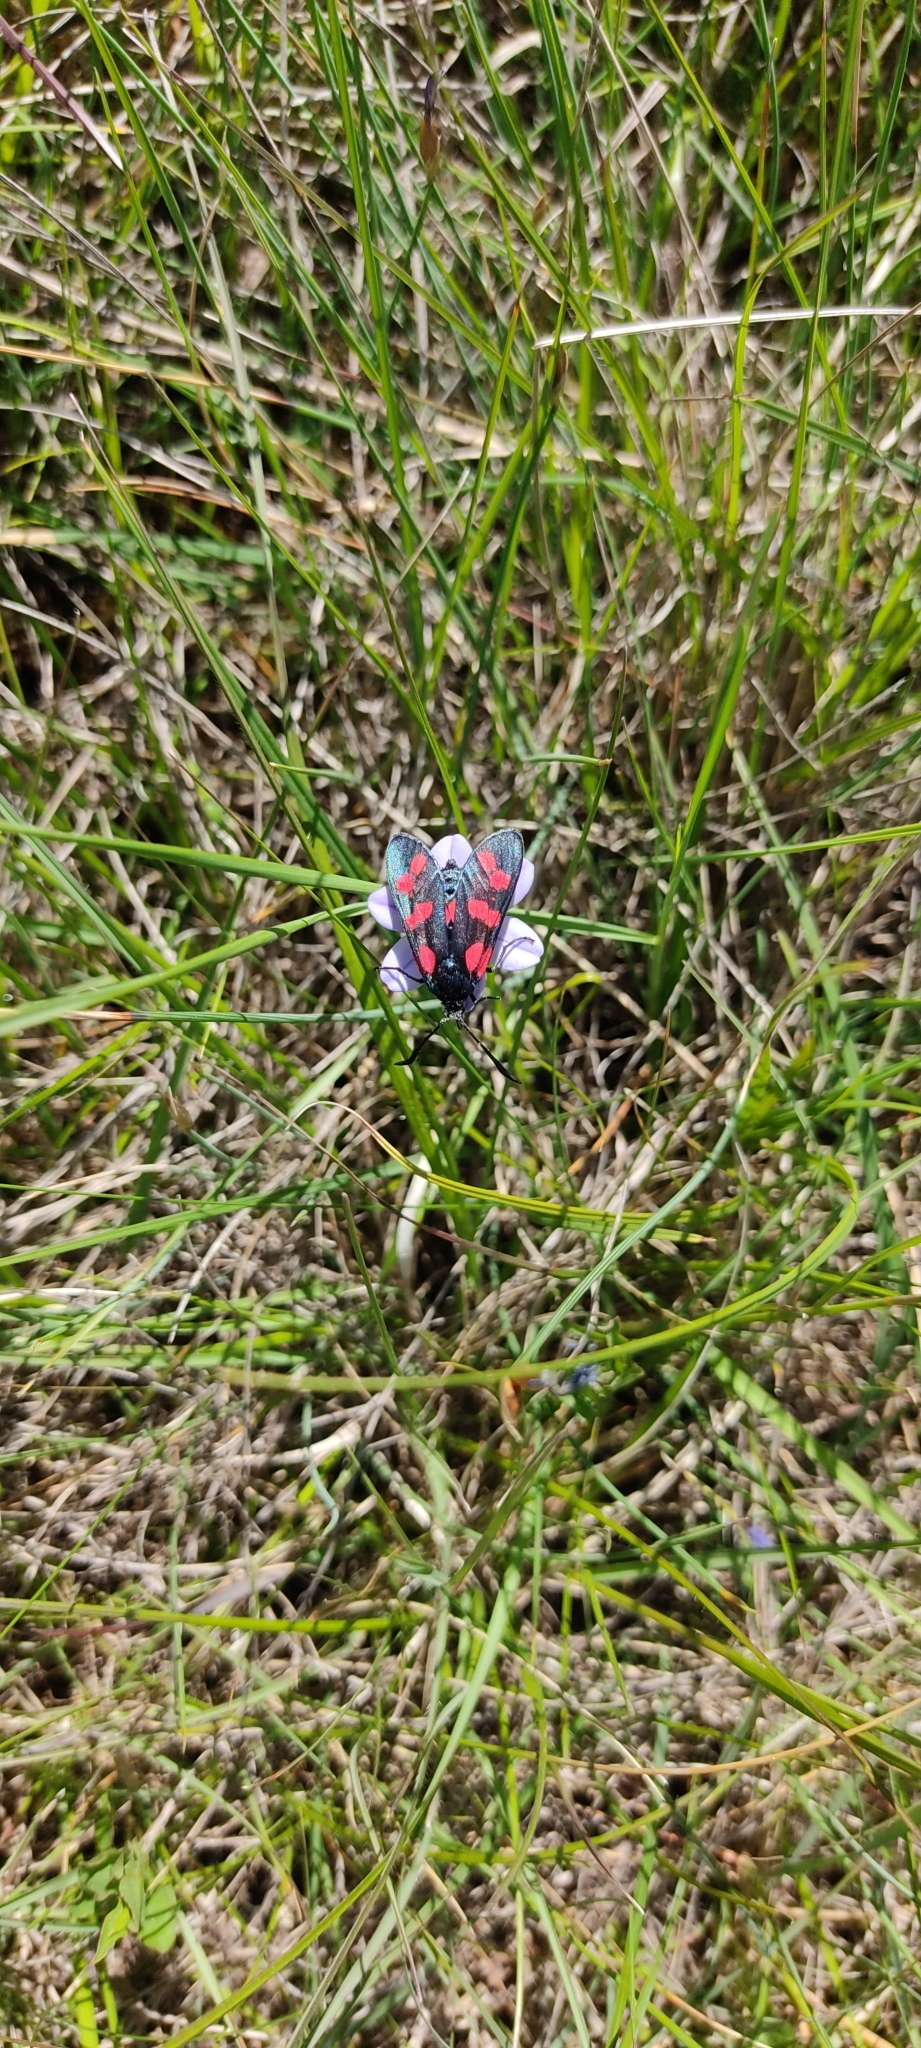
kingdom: Animalia
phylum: Arthropoda
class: Insecta
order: Lepidoptera
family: Zygaenidae
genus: Zygaena
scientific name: Zygaena filipendulae
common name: Six-spot burnet
